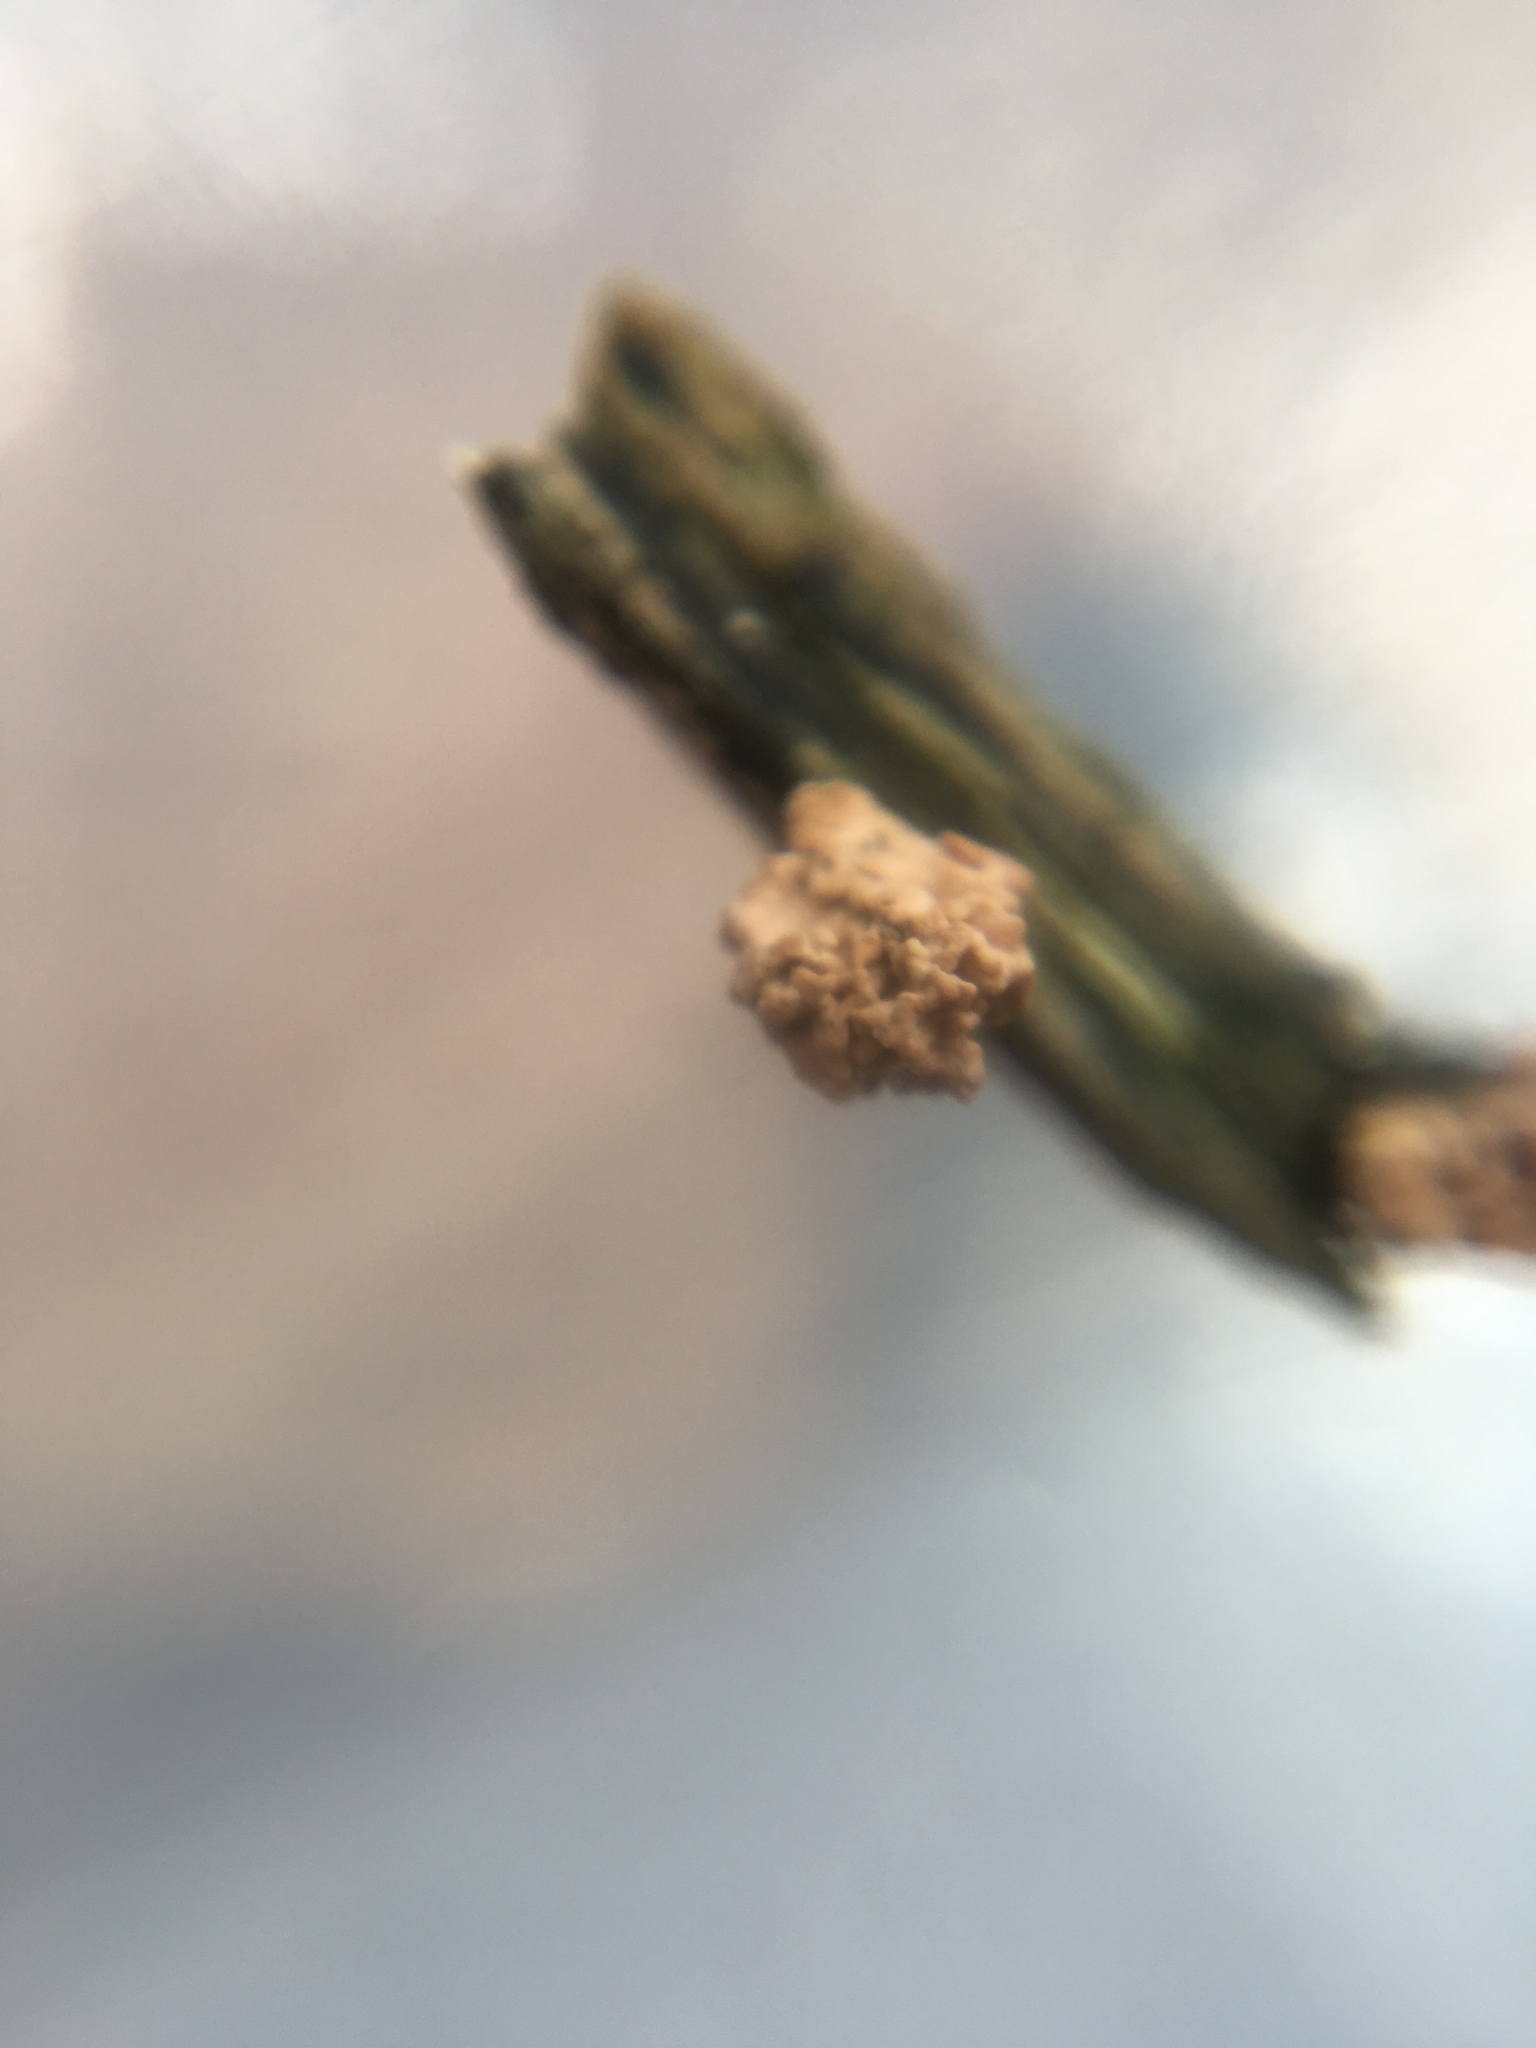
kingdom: Fungi
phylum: Ascomycota
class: Sordariomycetes
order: Xylariales
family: Xylariaceae
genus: Xylaria
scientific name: Xylaria cubensis
